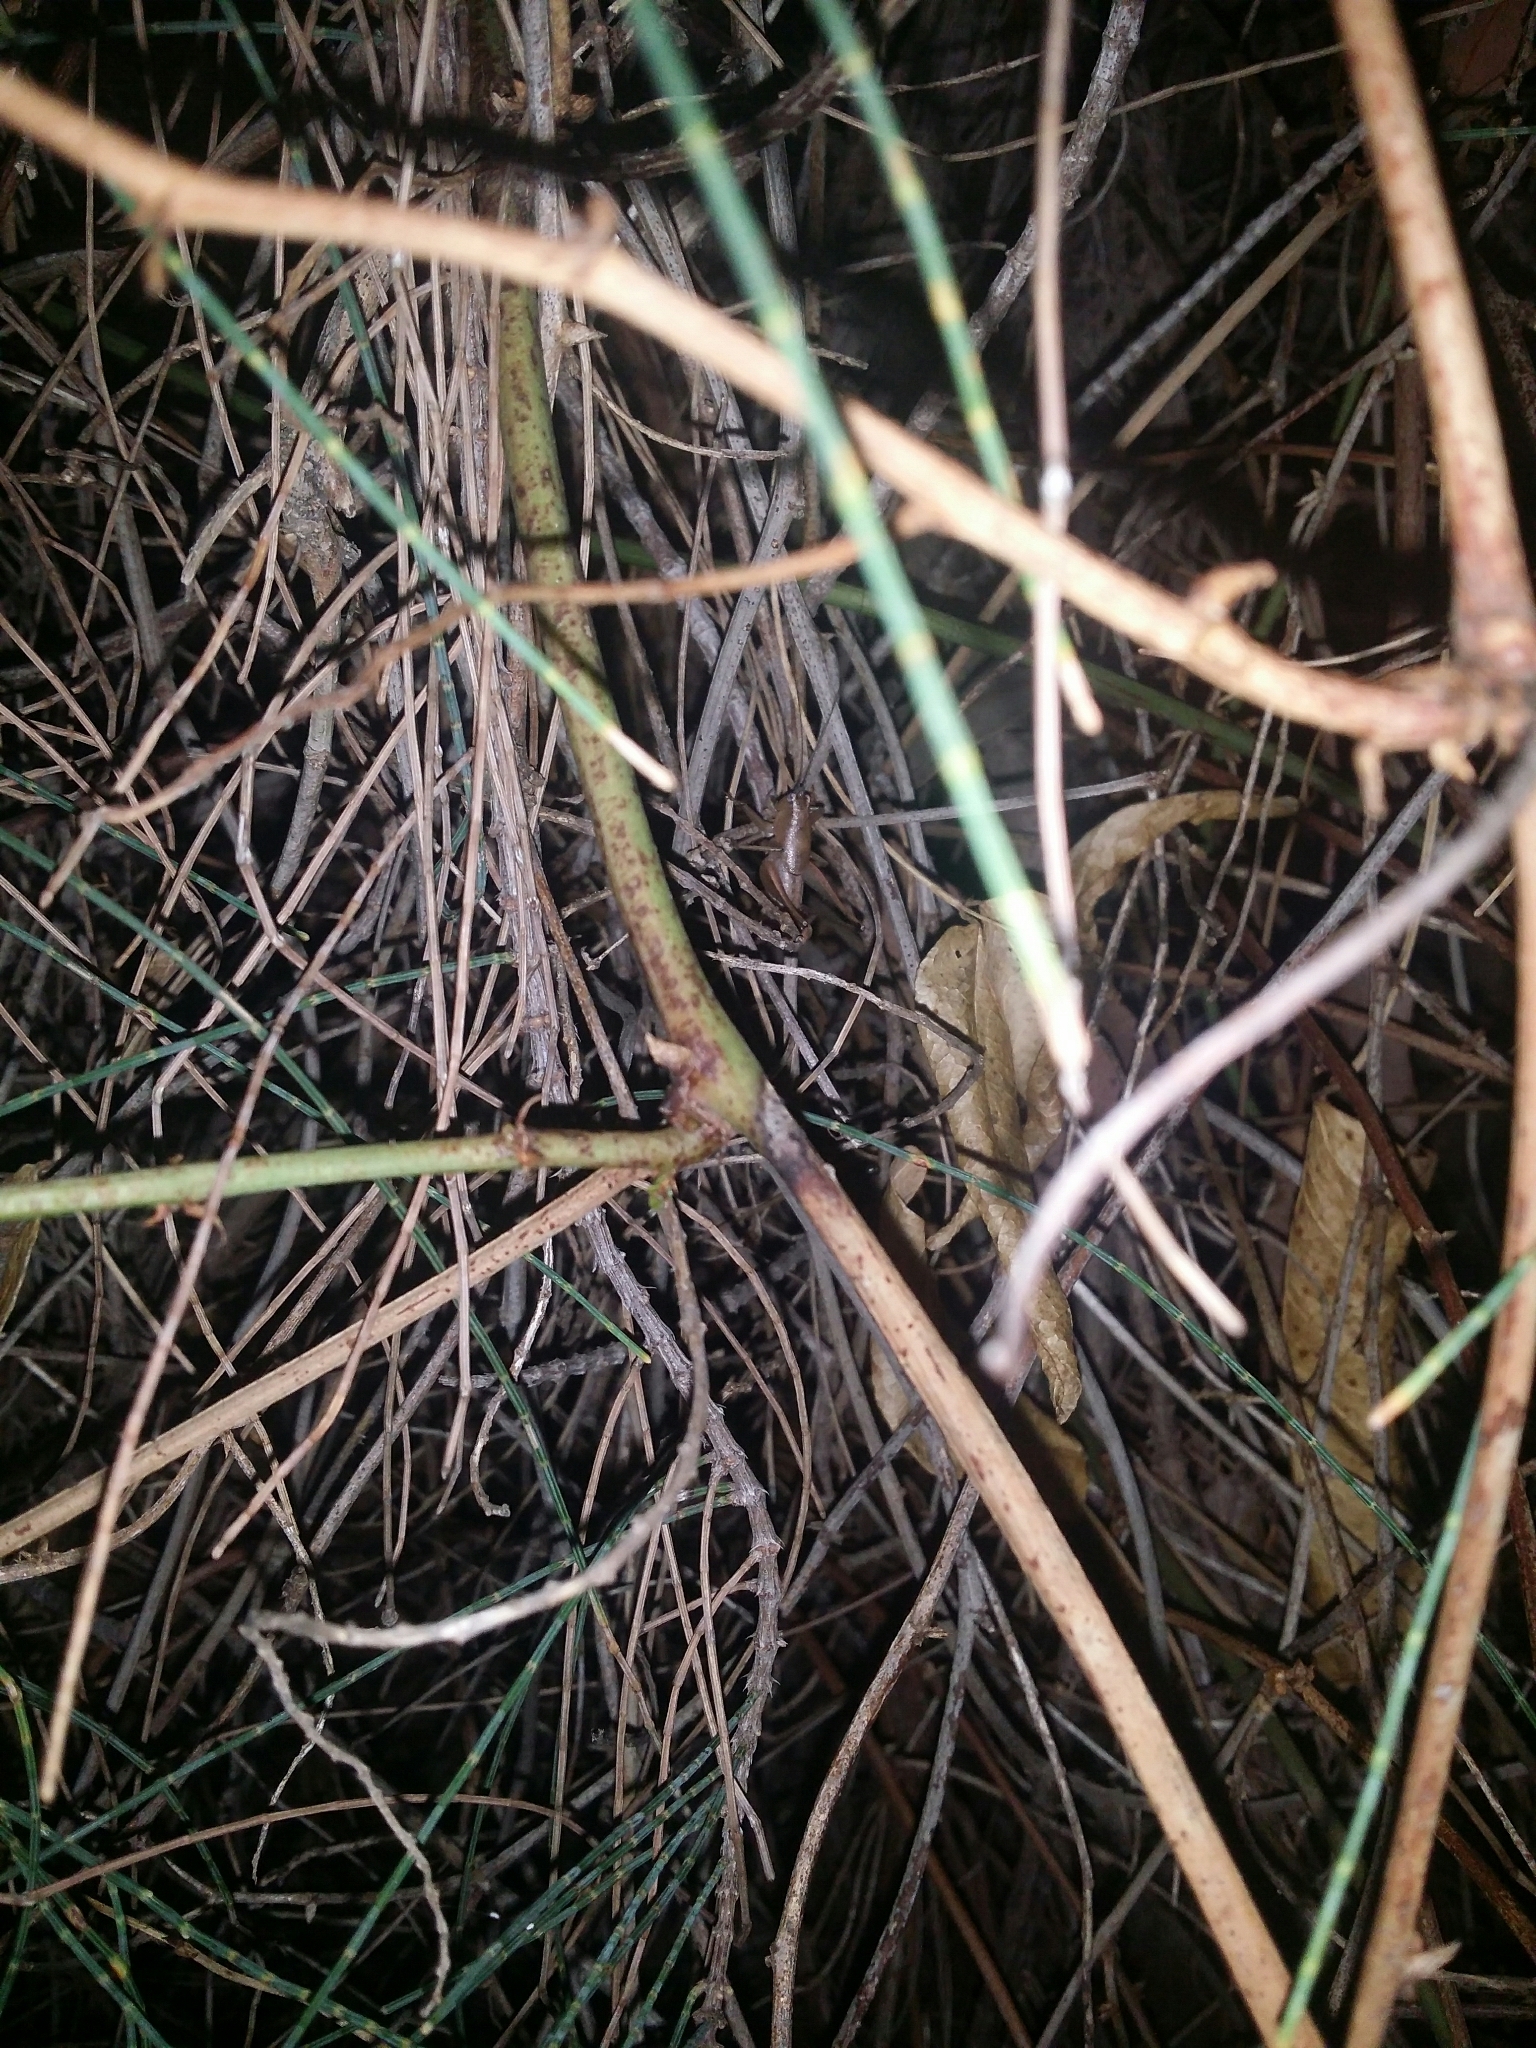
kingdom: Animalia
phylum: Arthropoda
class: Insecta
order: Orthoptera
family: Tettigoniidae
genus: Requena
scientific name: Requena verticalis
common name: Common western requena
